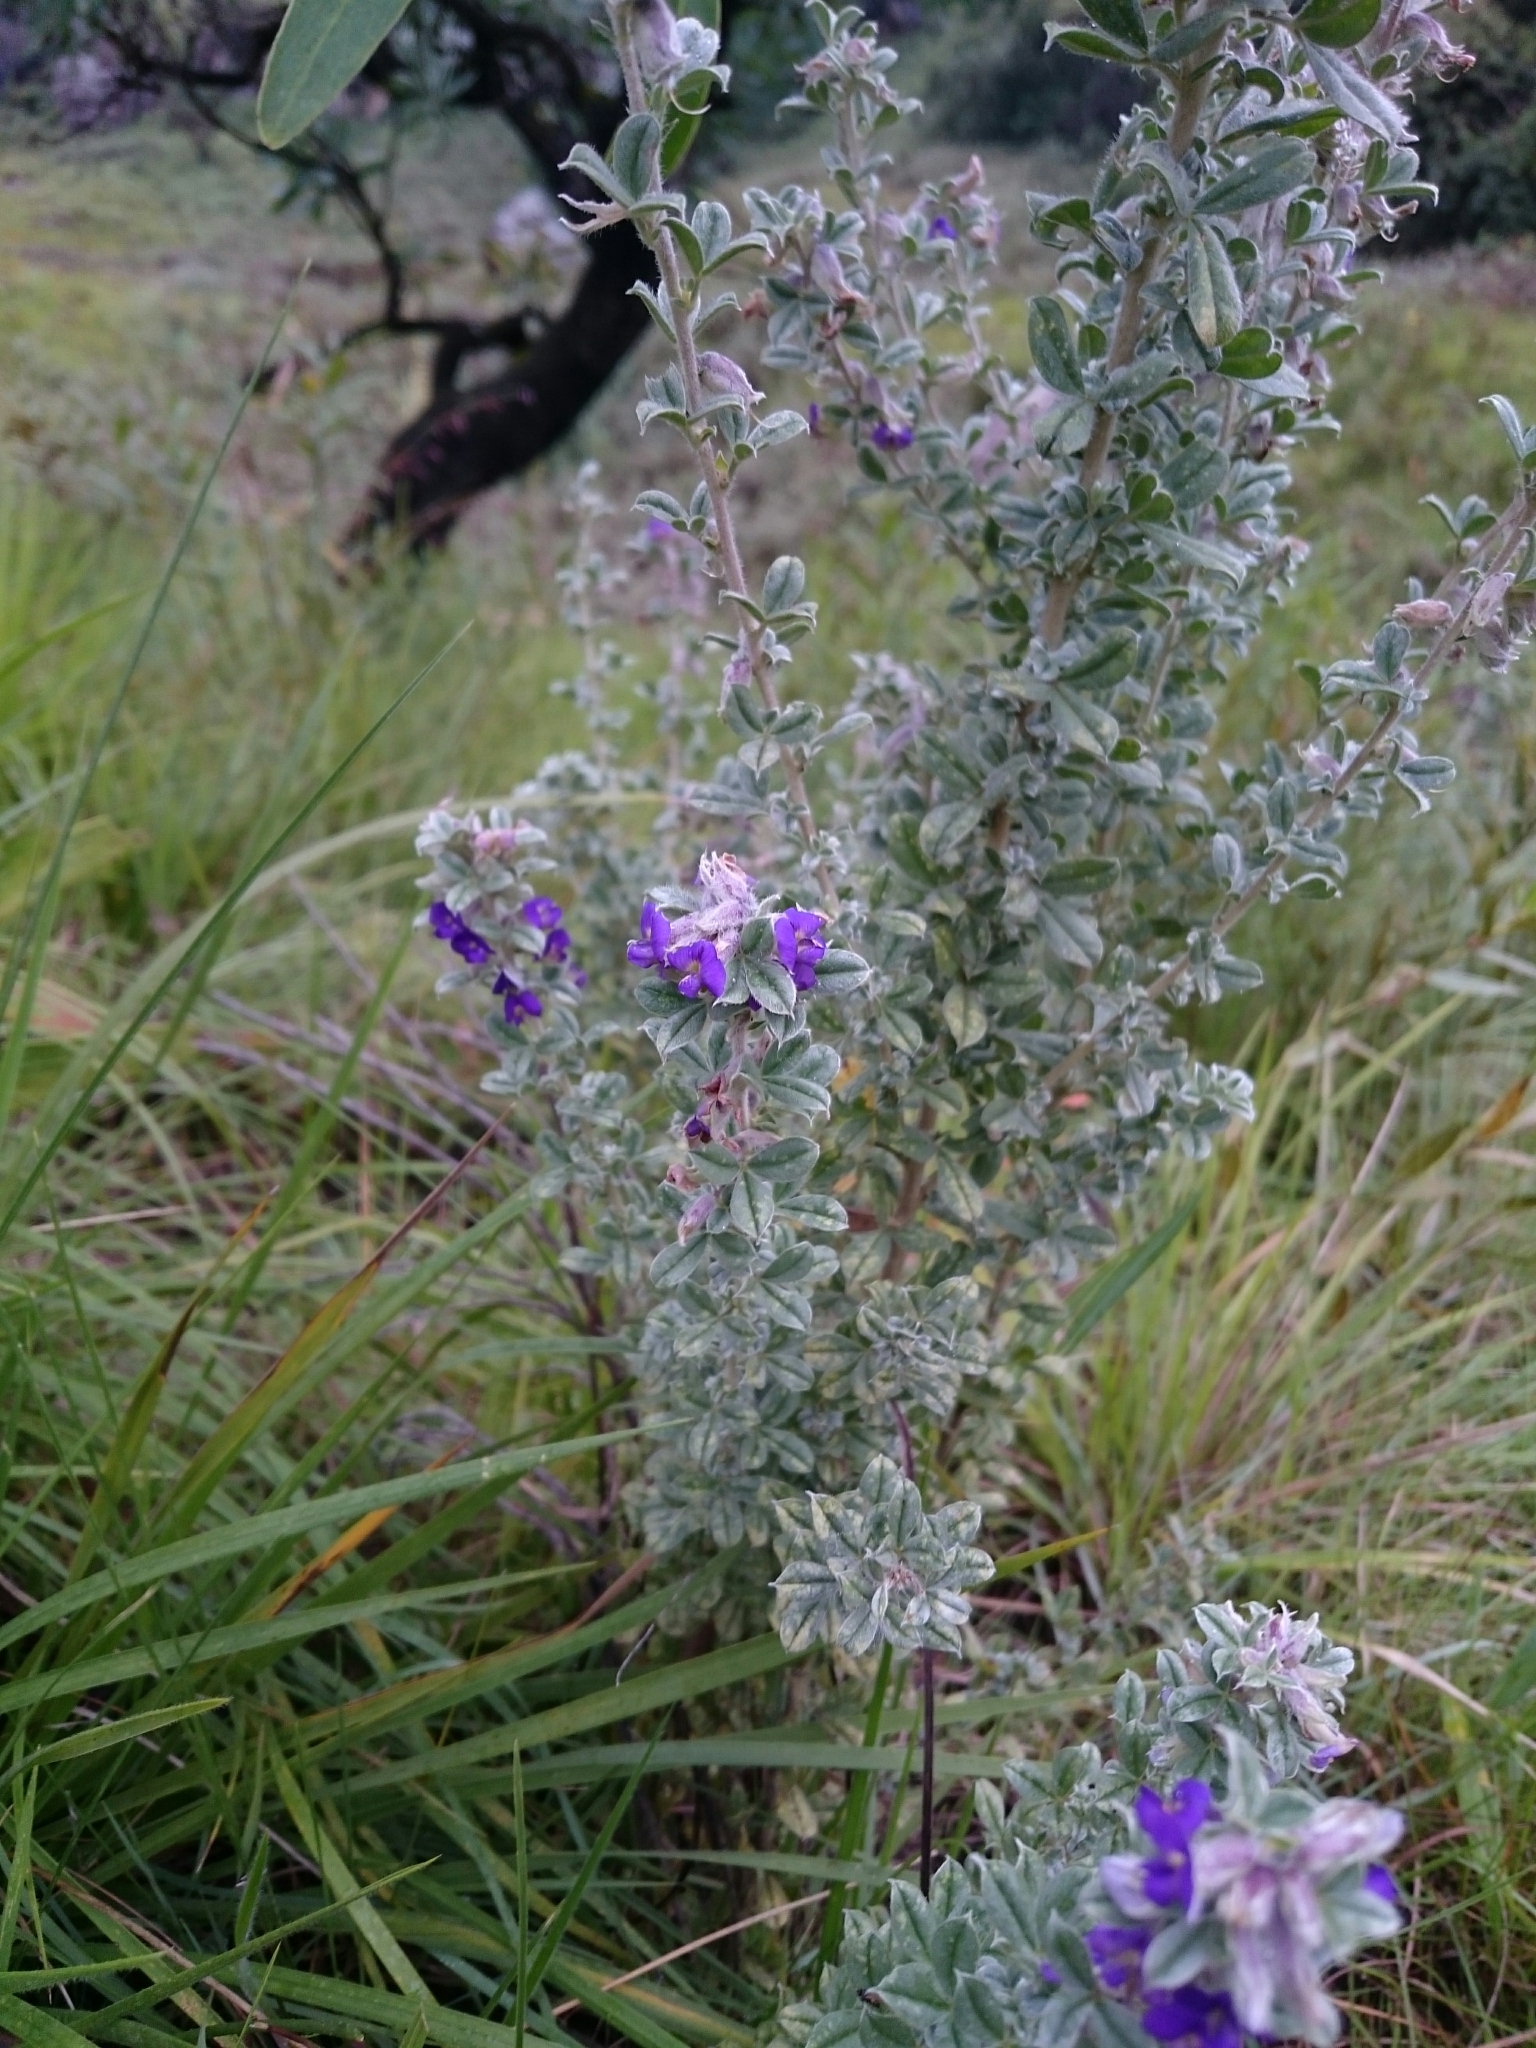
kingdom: Plantae
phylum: Tracheophyta
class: Magnoliopsida
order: Fabales
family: Fabaceae
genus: Lotononis
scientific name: Lotononis lotononoides
